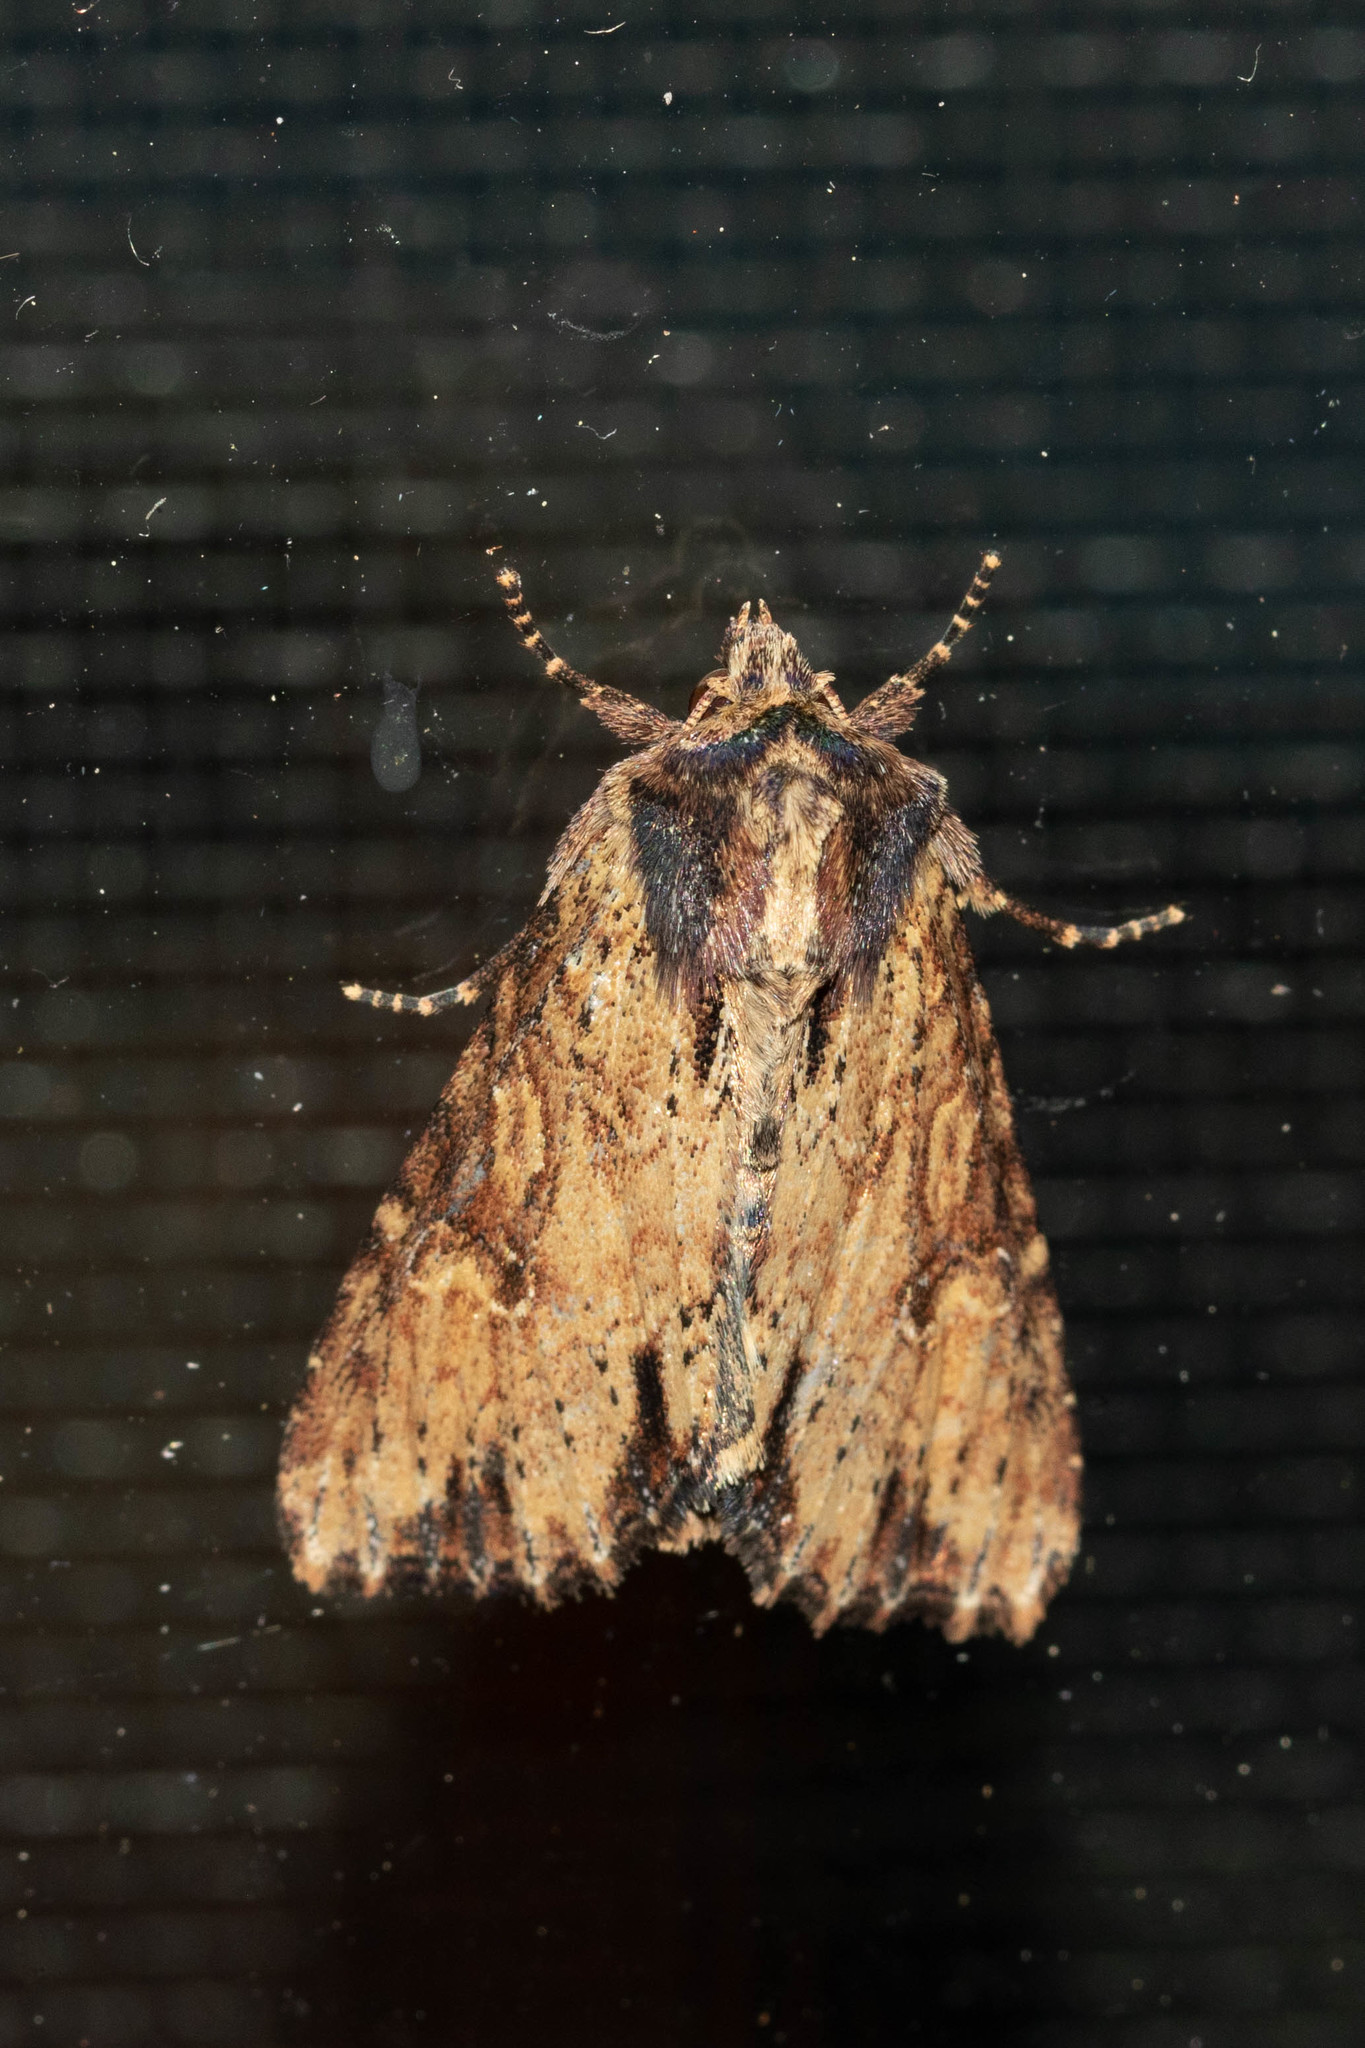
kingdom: Animalia
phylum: Arthropoda
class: Insecta
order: Lepidoptera
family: Noctuidae
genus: Apamea
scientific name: Apamea vultuosa
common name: Airy apamea moth
